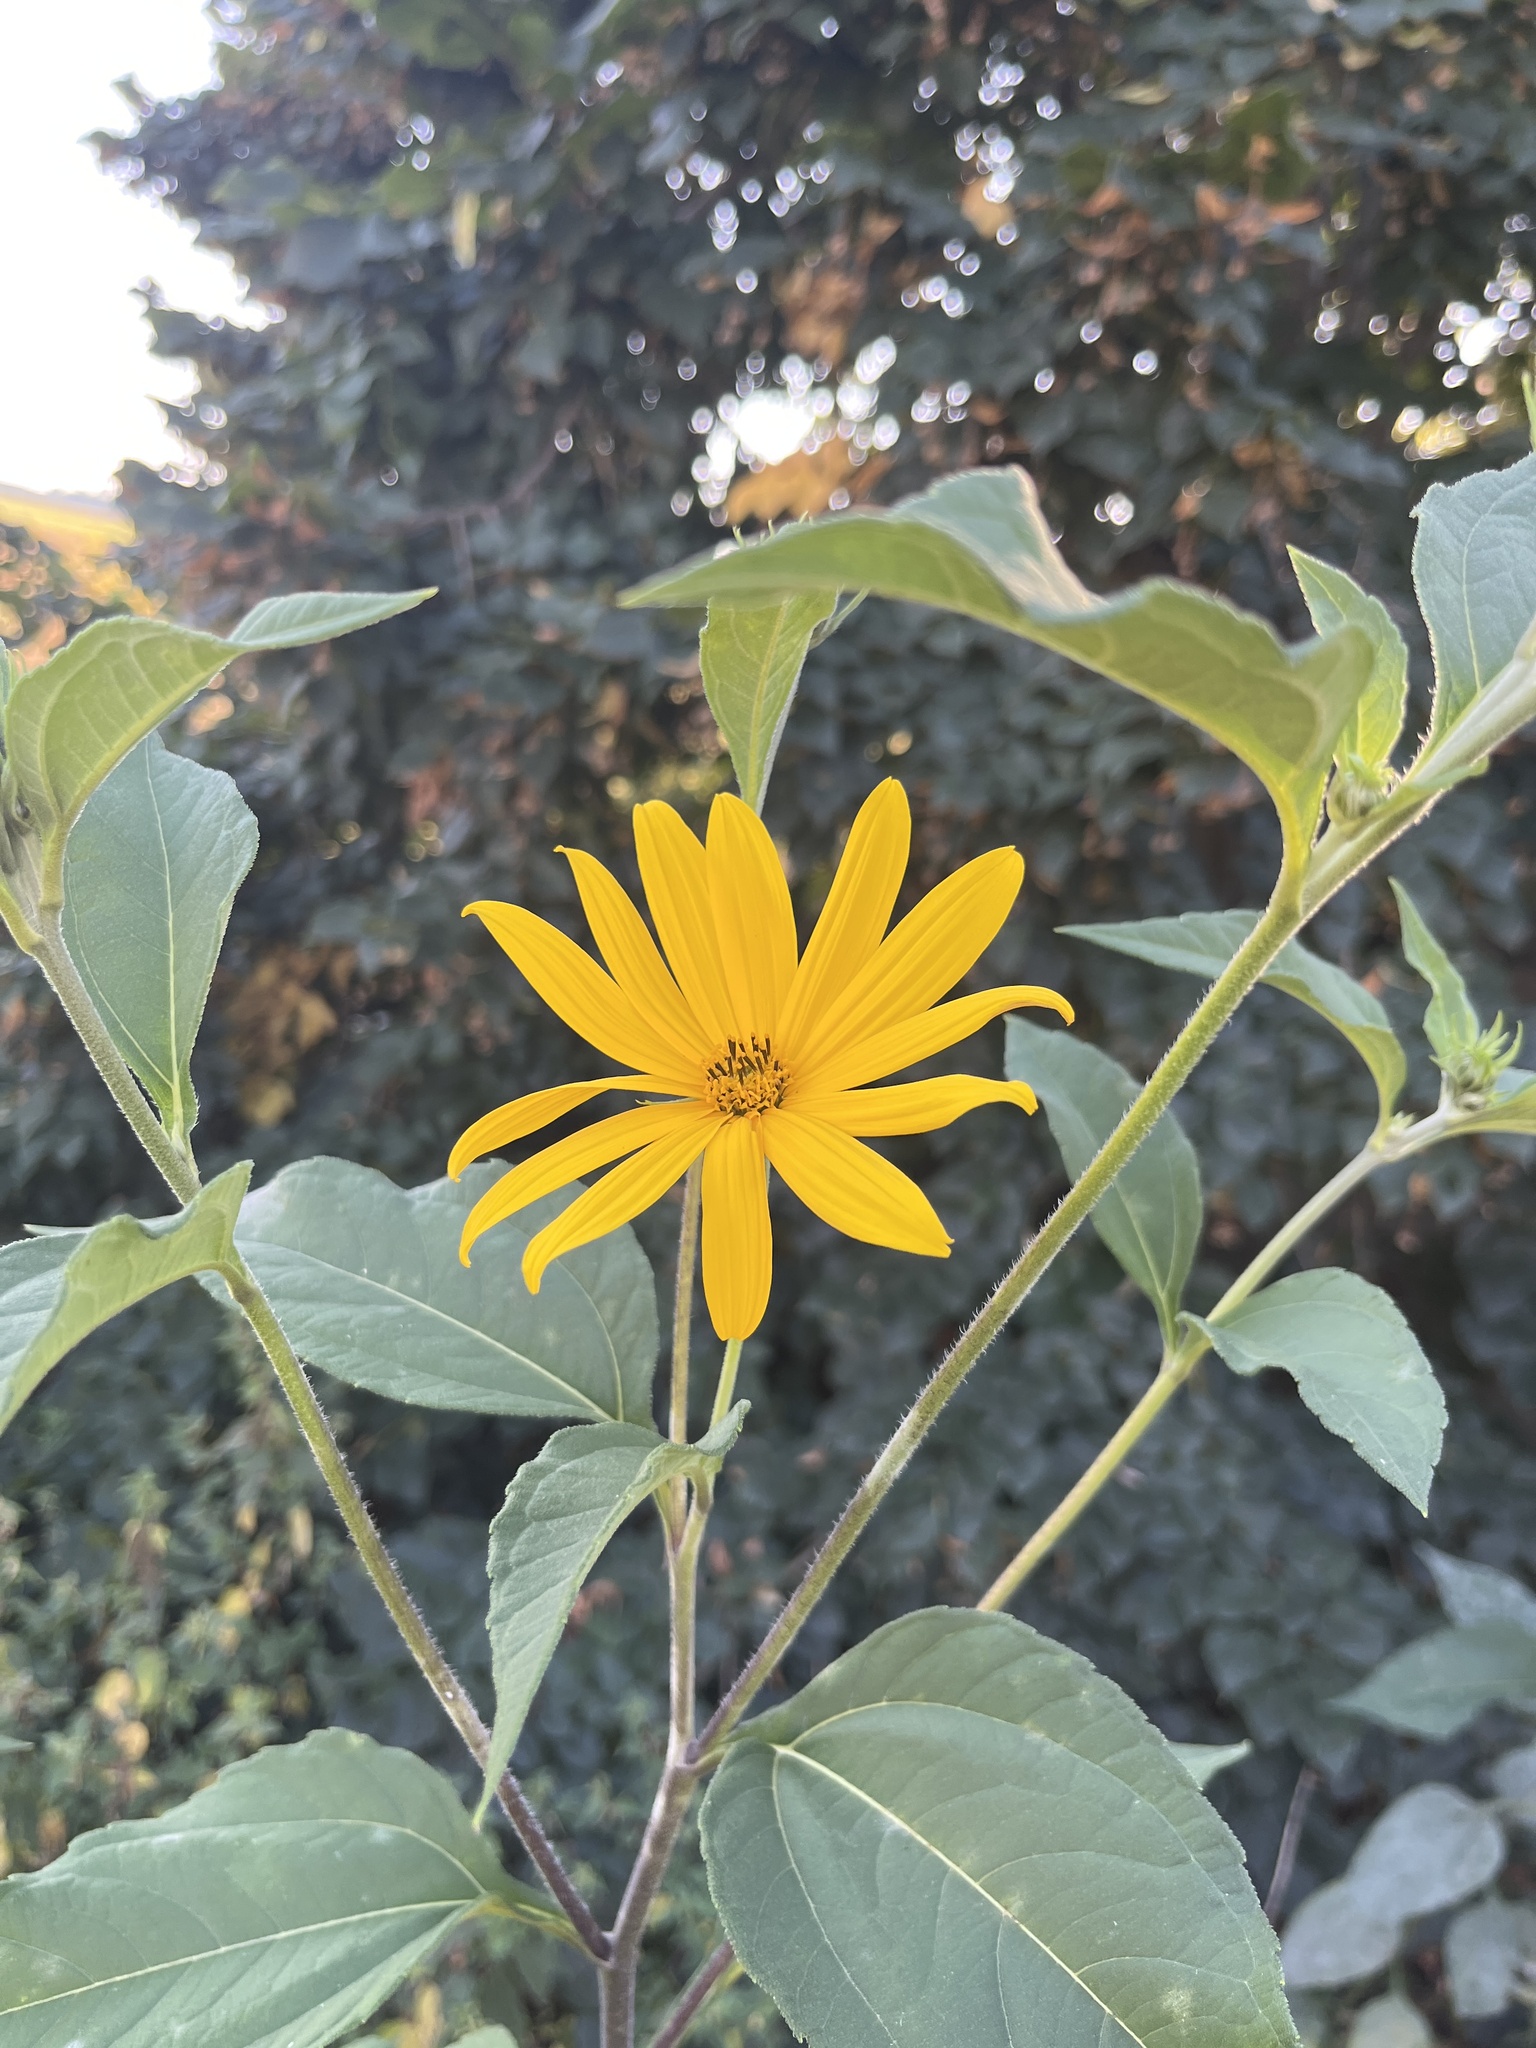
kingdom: Plantae
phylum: Tracheophyta
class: Magnoliopsida
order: Asterales
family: Asteraceae
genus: Helianthus
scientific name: Helianthus tuberosus
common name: Jerusalem artichoke
